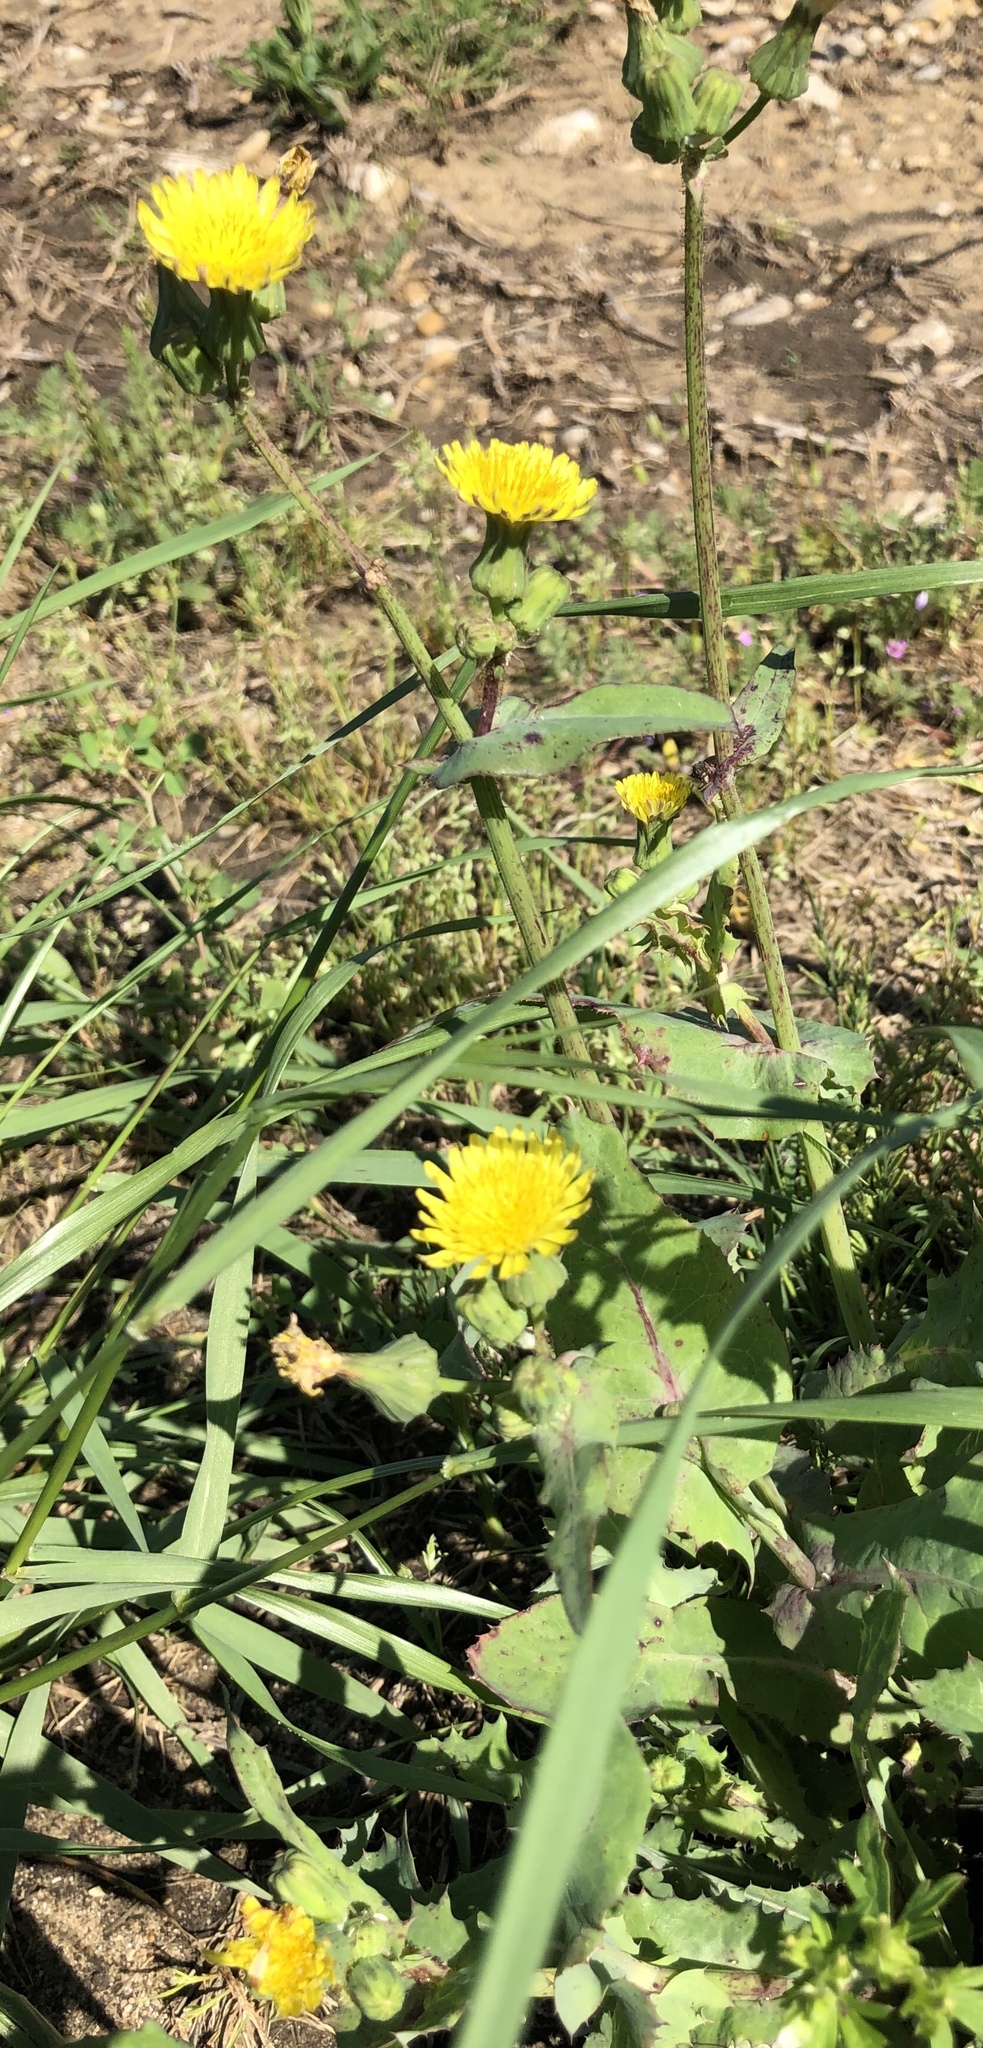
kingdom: Plantae
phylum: Tracheophyta
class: Magnoliopsida
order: Asterales
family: Asteraceae
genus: Taraxacum
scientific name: Taraxacum officinale
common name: Common dandelion
